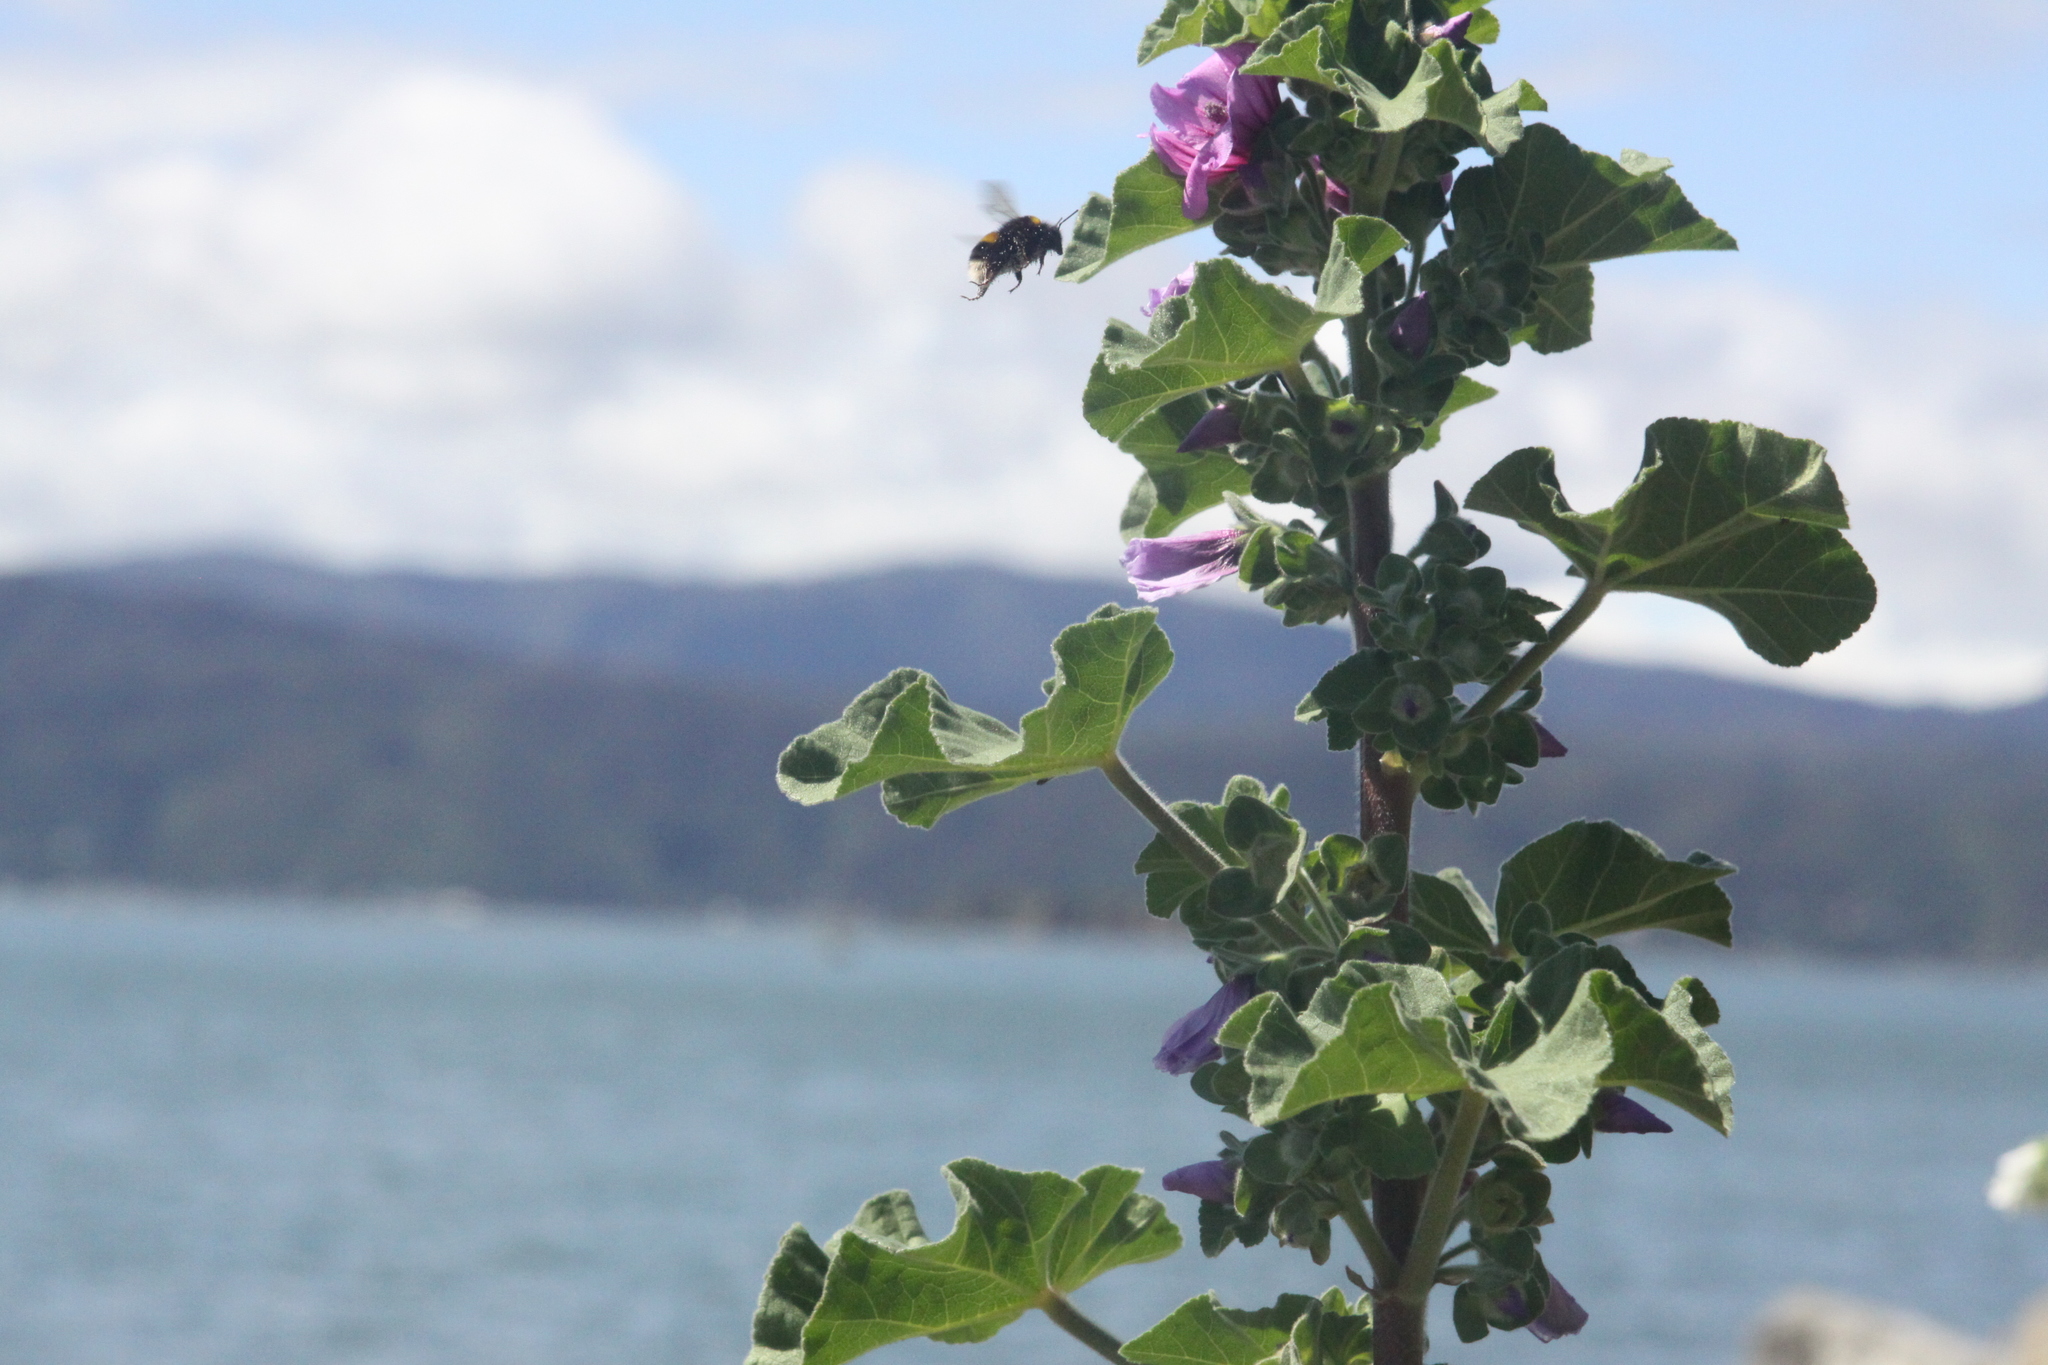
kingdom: Plantae
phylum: Tracheophyta
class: Magnoliopsida
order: Malvales
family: Malvaceae
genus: Malva
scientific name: Malva arborea
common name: Tree mallow
